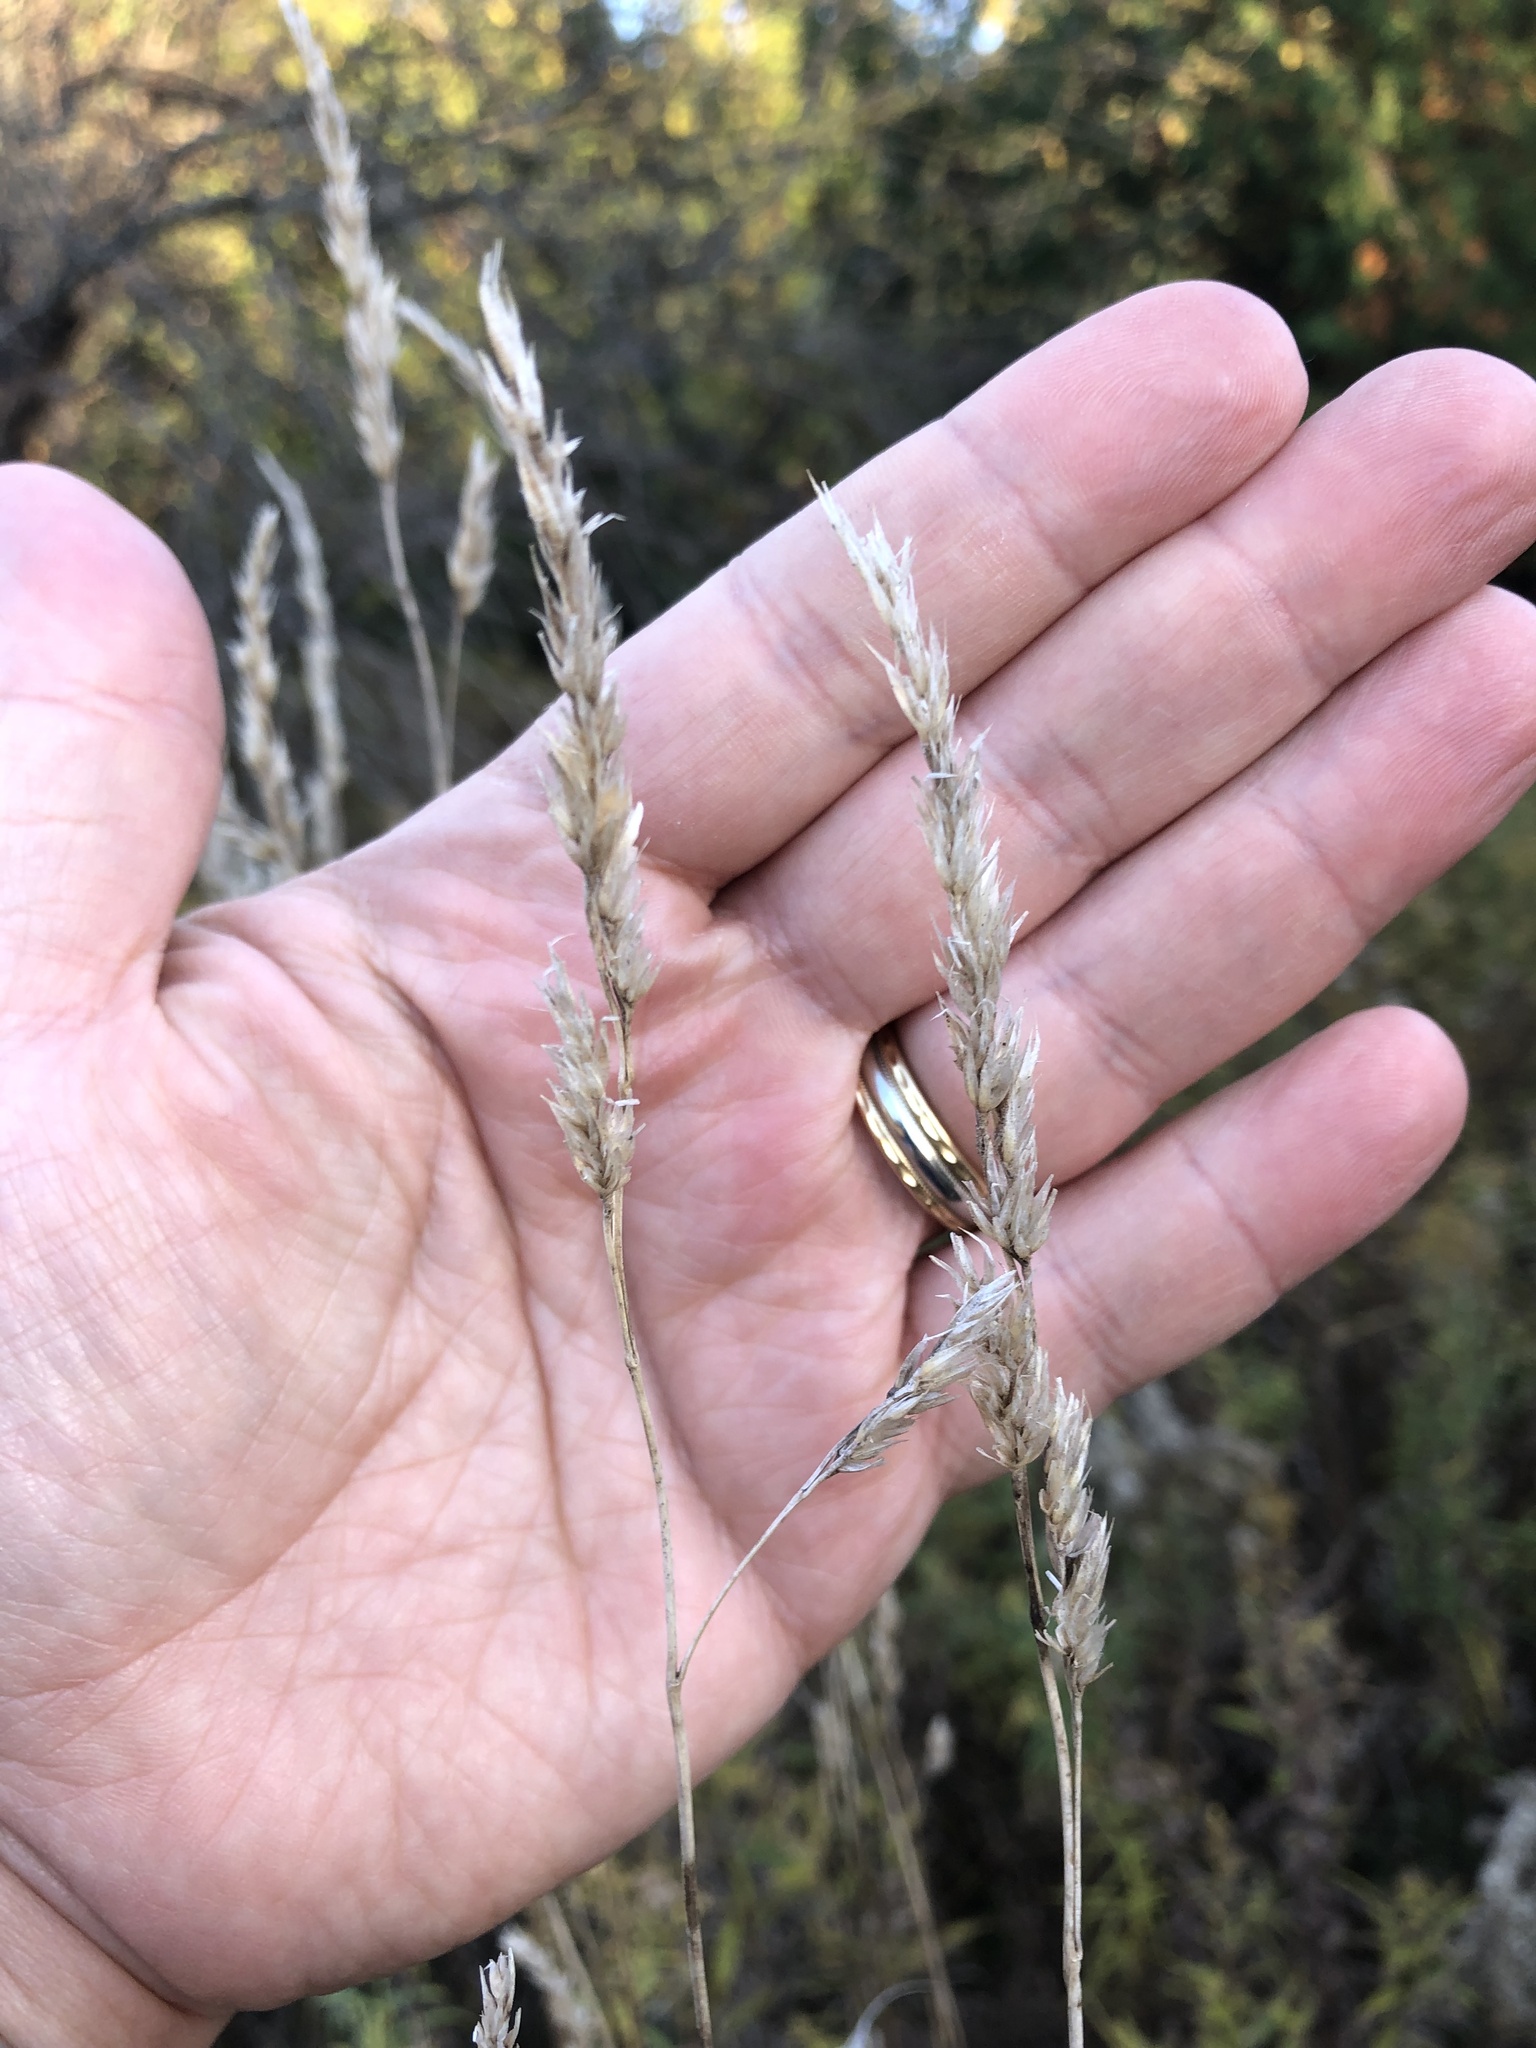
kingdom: Plantae
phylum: Tracheophyta
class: Liliopsida
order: Poales
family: Poaceae
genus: Dactylis
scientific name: Dactylis glomerata
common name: Orchardgrass
